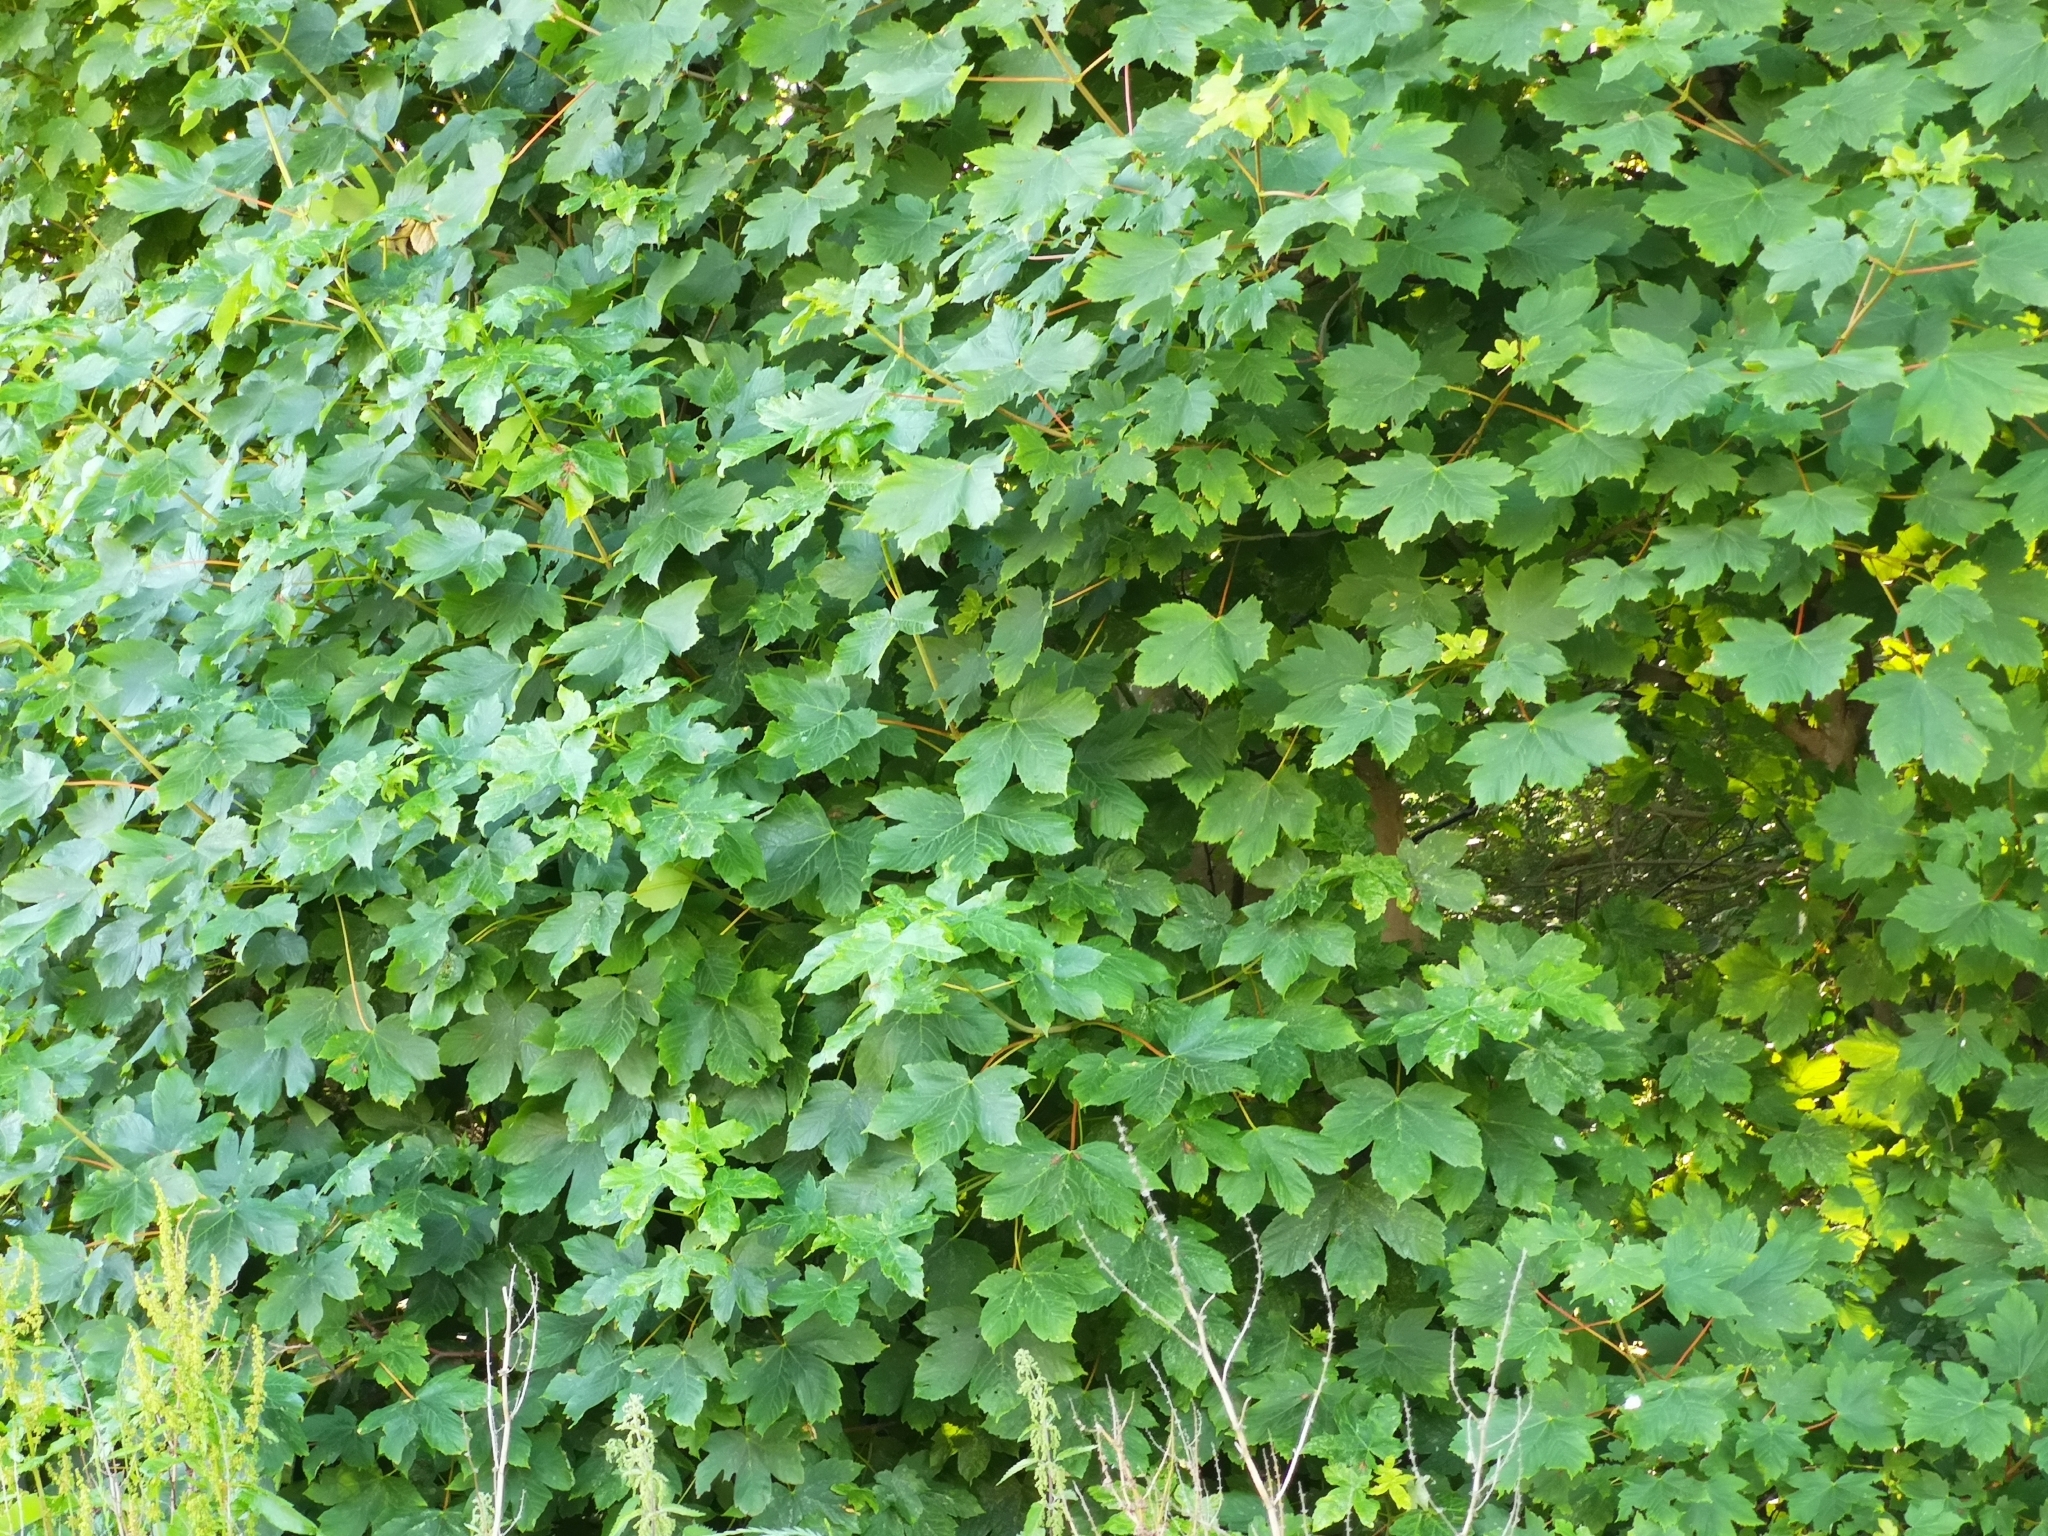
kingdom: Plantae
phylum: Tracheophyta
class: Magnoliopsida
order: Sapindales
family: Sapindaceae
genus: Acer
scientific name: Acer pseudoplatanus
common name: Sycamore
